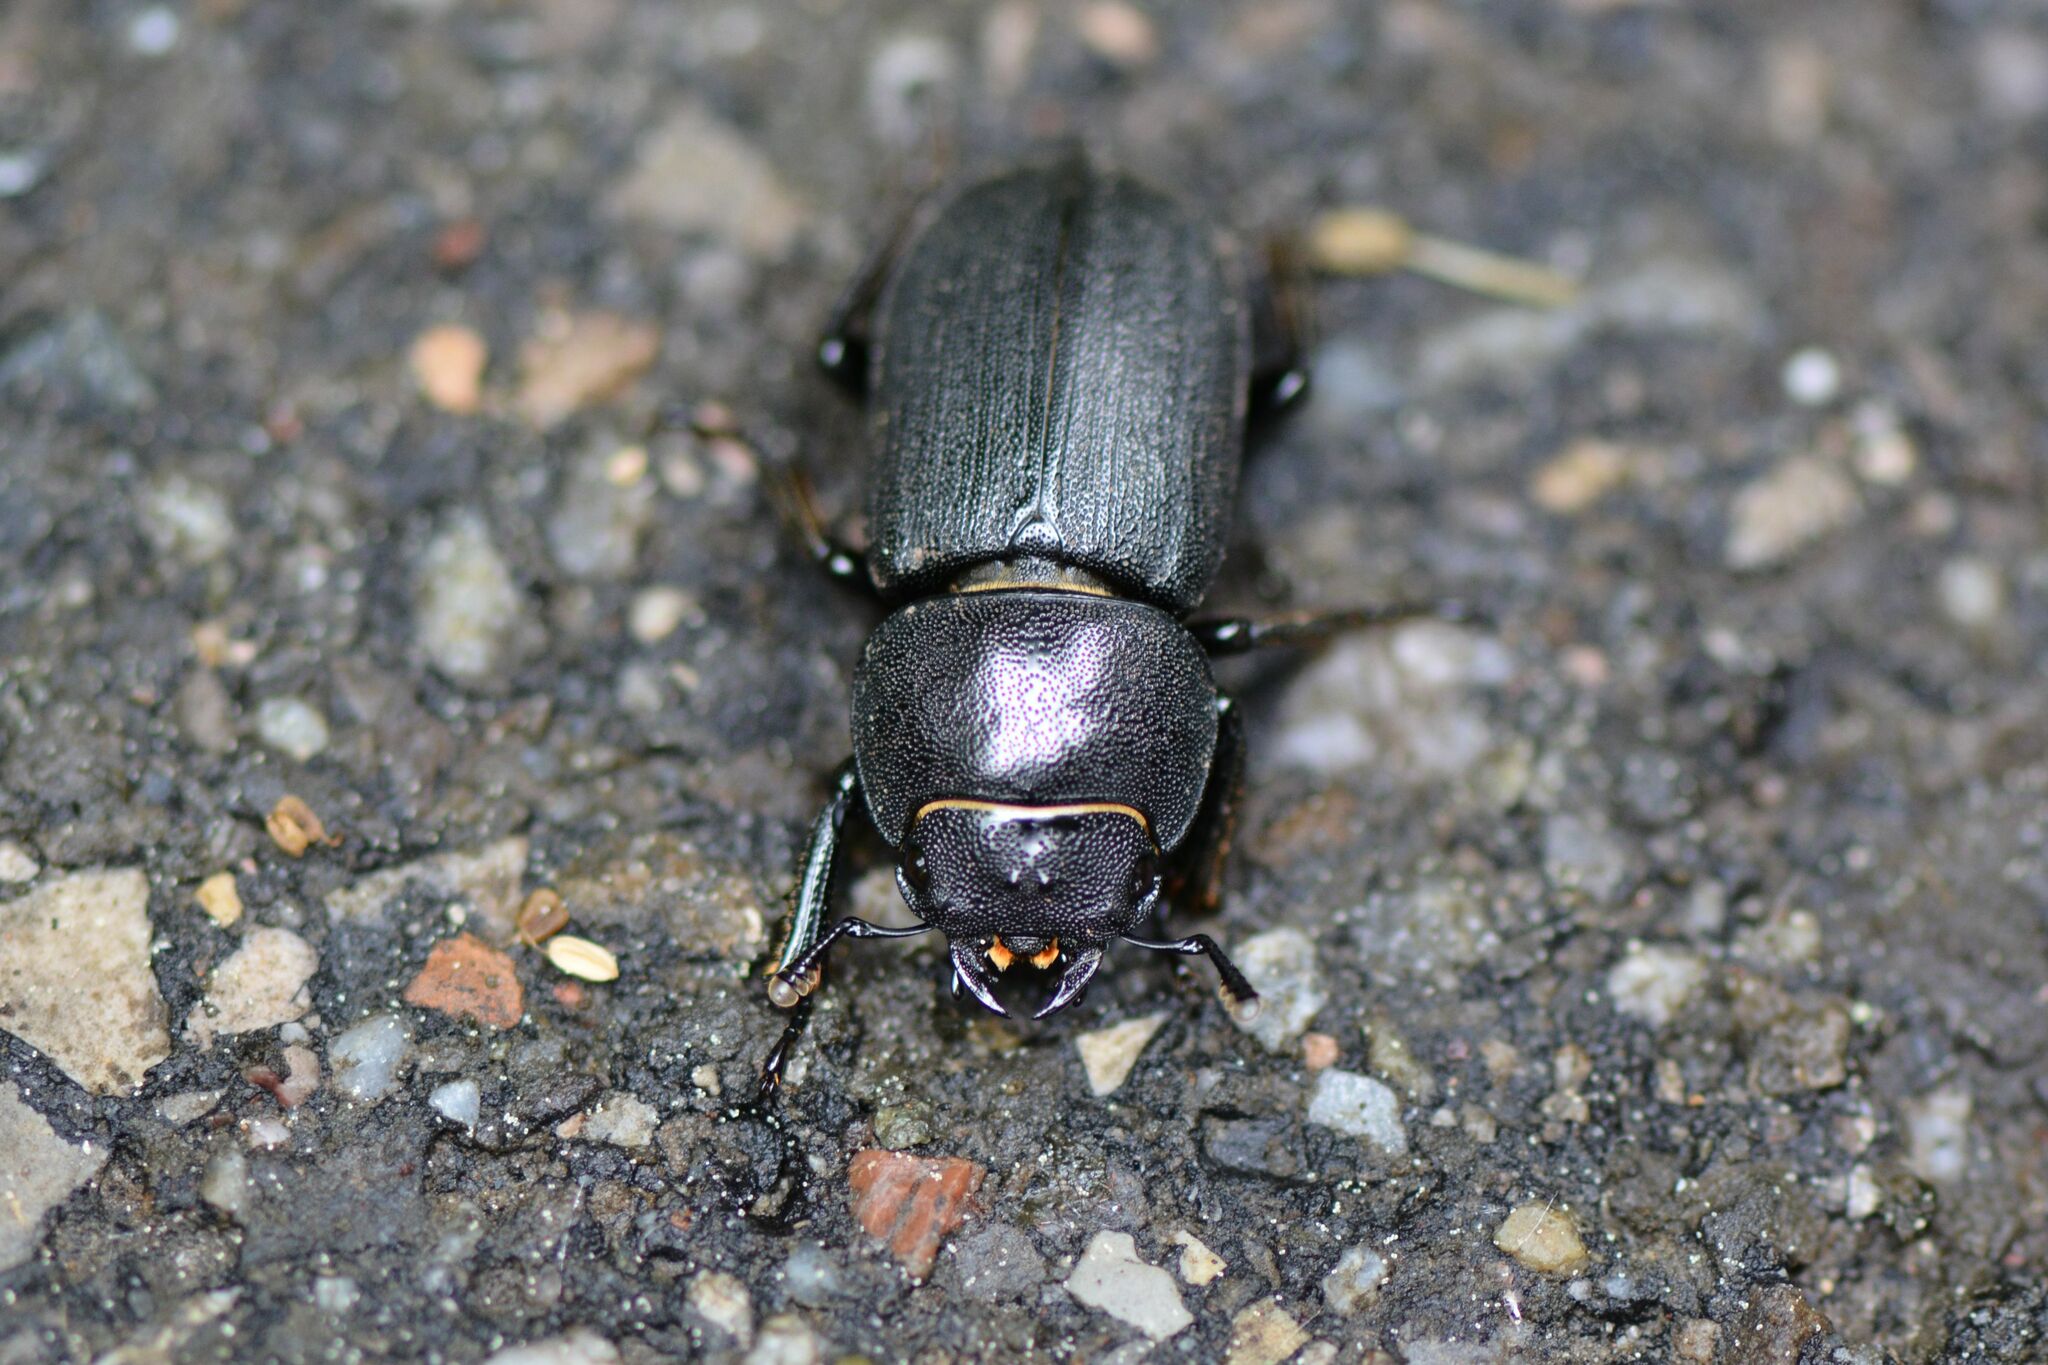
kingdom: Animalia
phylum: Arthropoda
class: Insecta
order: Coleoptera
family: Lucanidae
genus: Dorcus
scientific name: Dorcus parallelipipedus
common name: Lesser stag beetle
